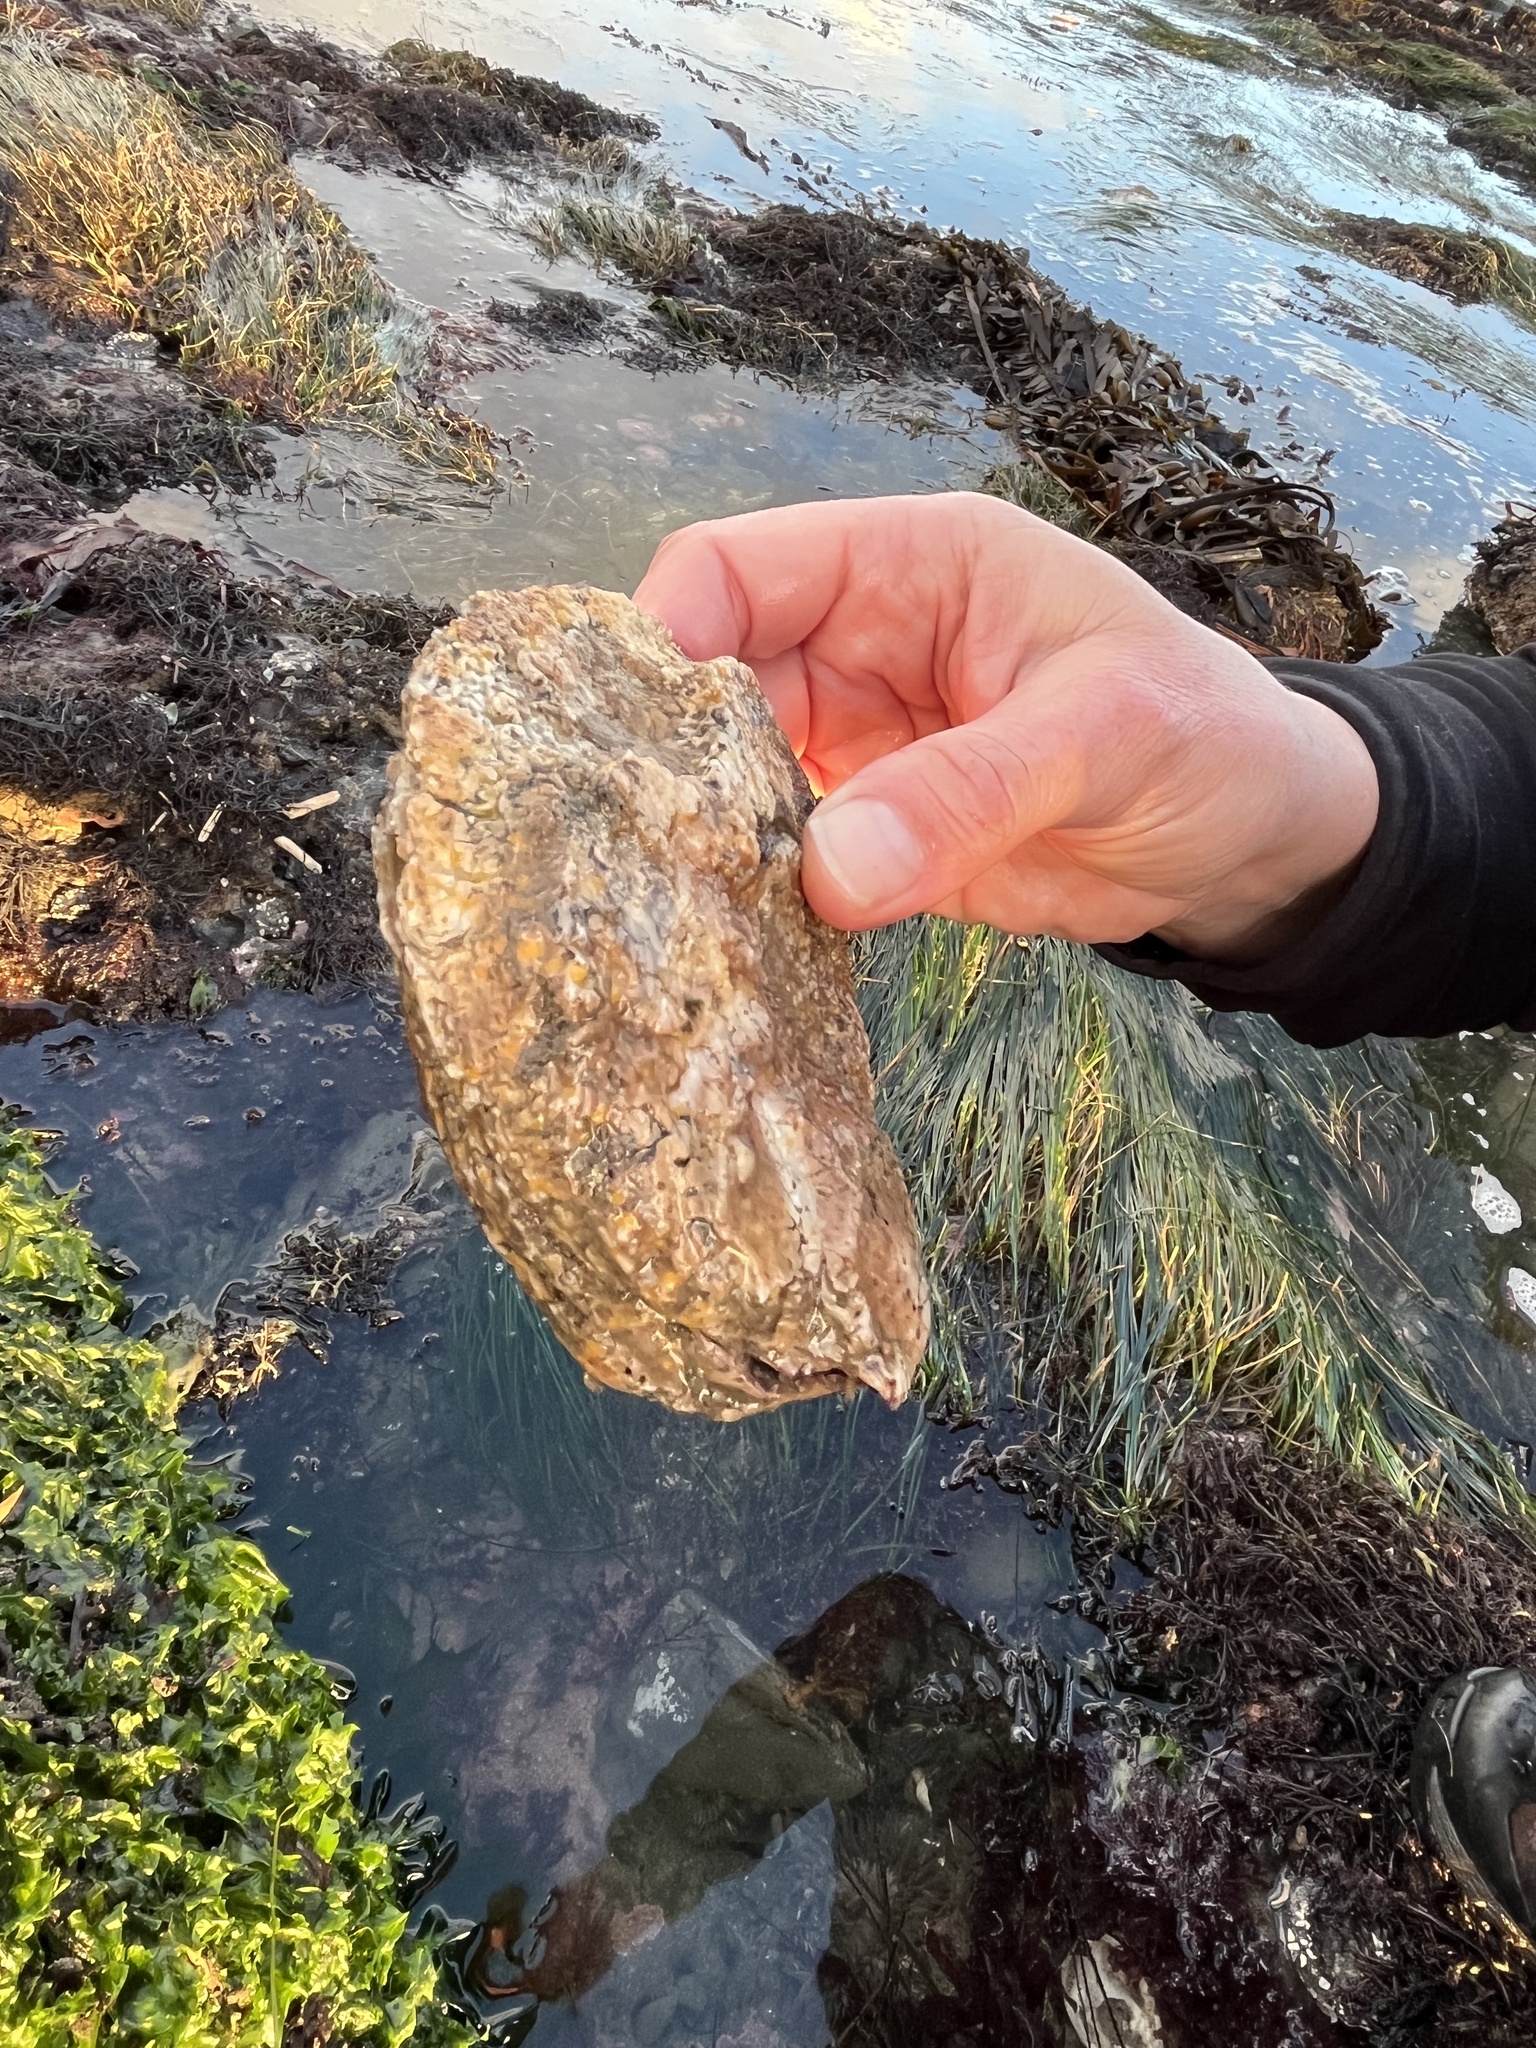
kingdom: Animalia
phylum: Mollusca
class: Bivalvia
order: Pectinida
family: Pectinidae
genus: Crassadoma
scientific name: Crassadoma gigantea
